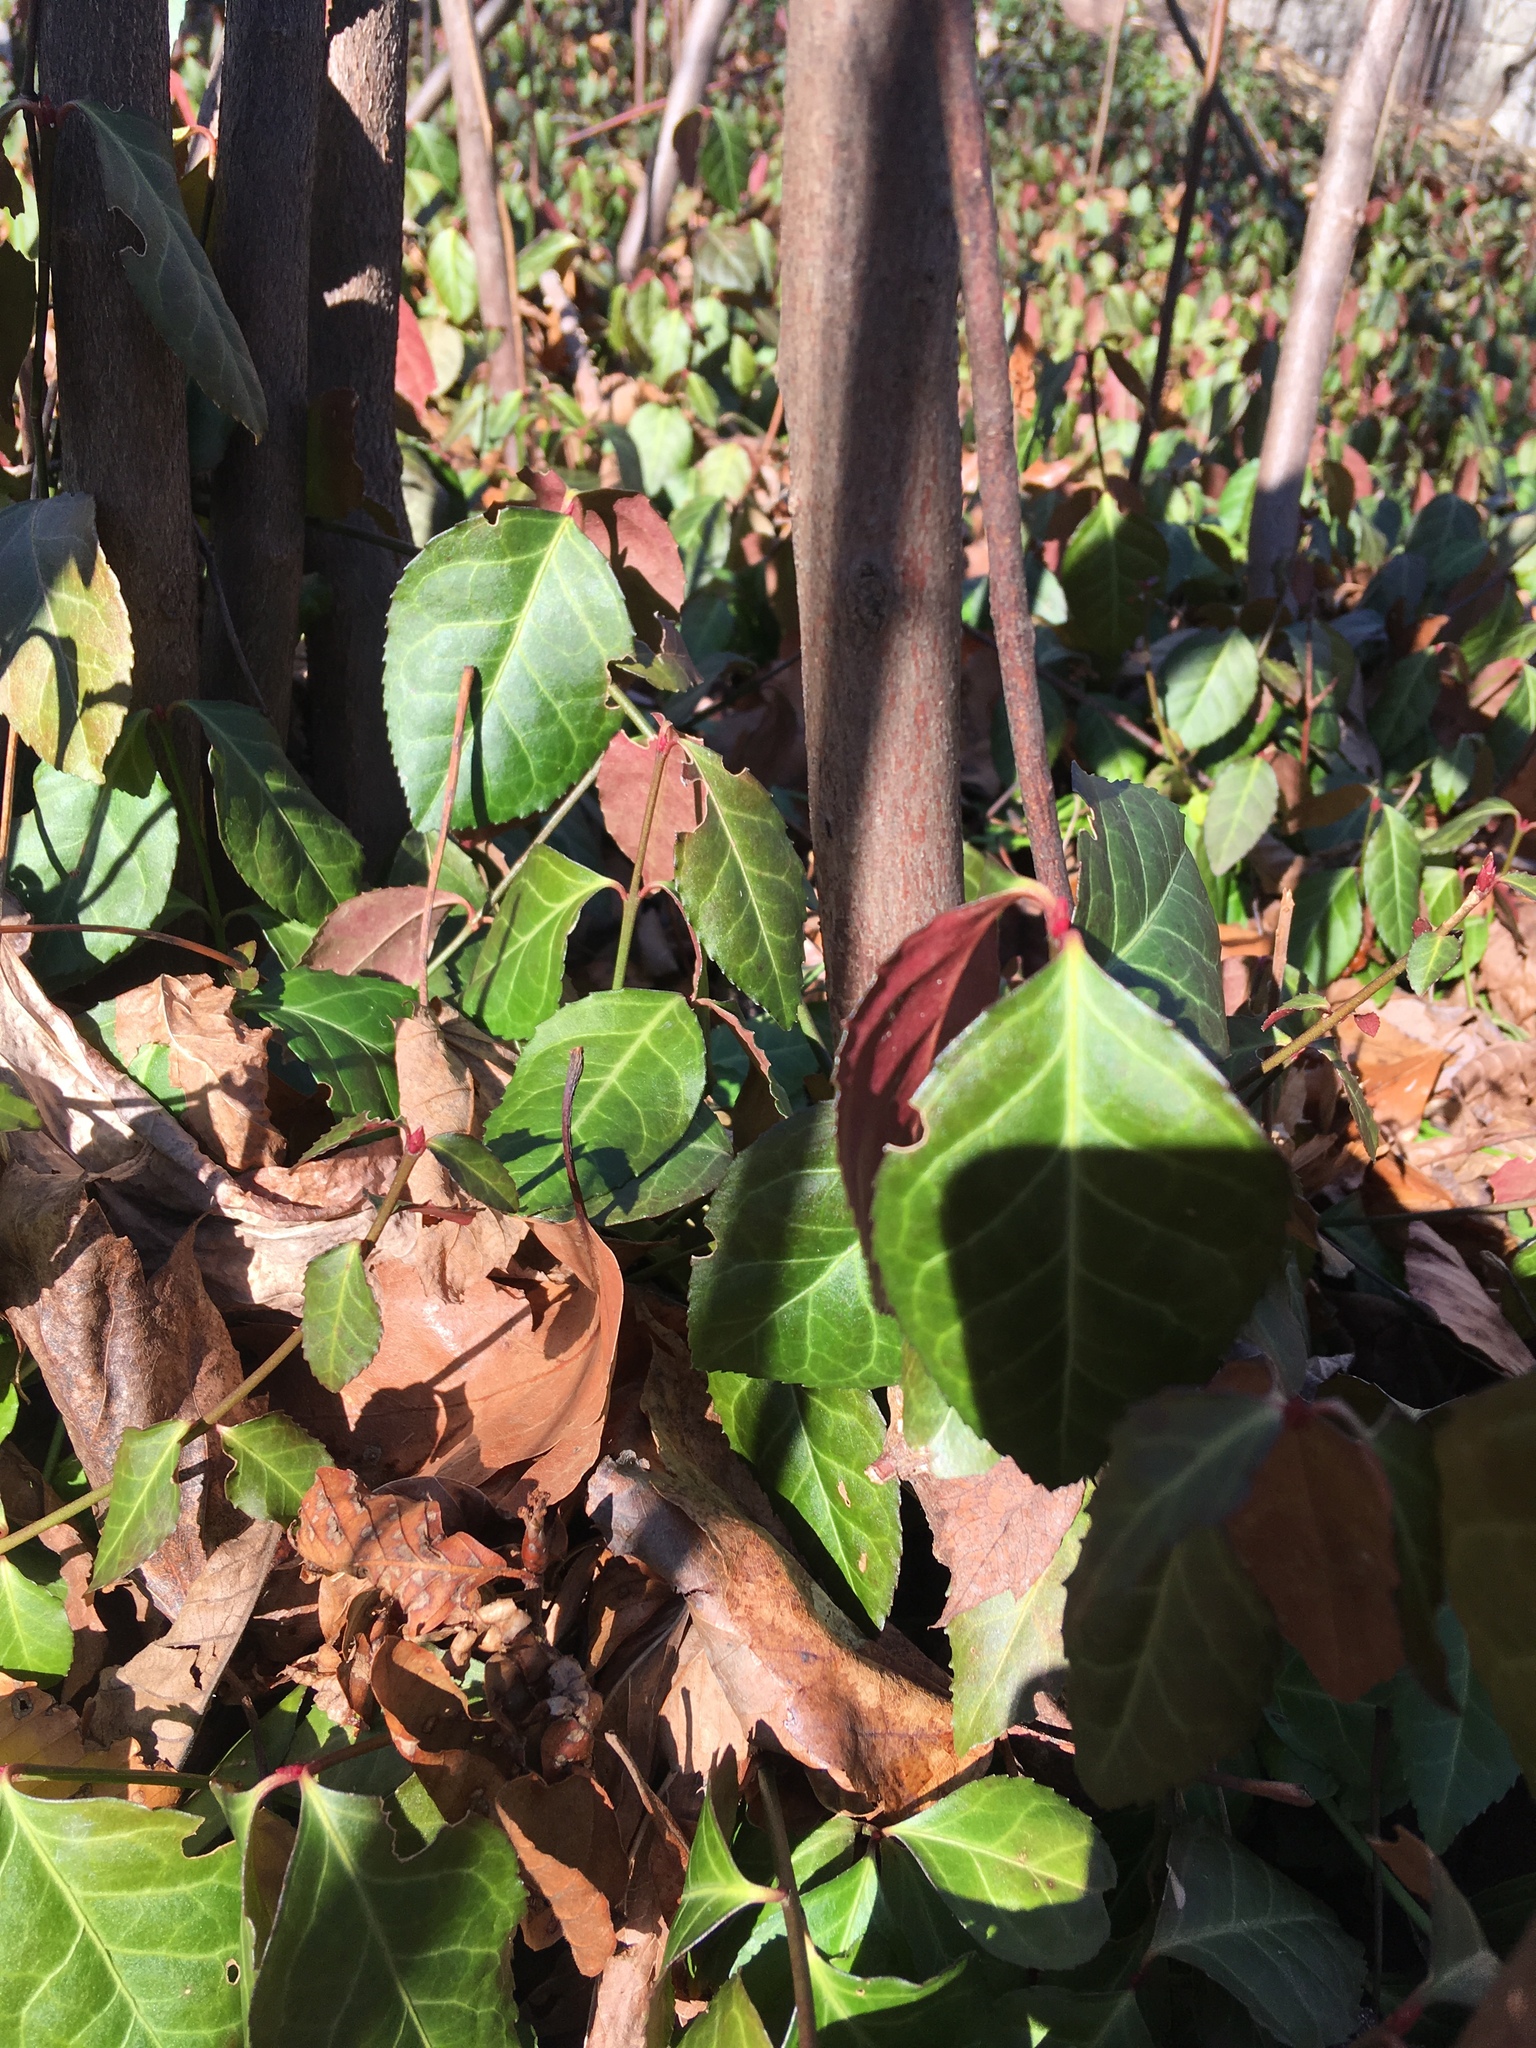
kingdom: Plantae
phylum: Tracheophyta
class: Magnoliopsida
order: Celastrales
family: Celastraceae
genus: Euonymus
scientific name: Euonymus fortunei
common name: Climbing euonymus
